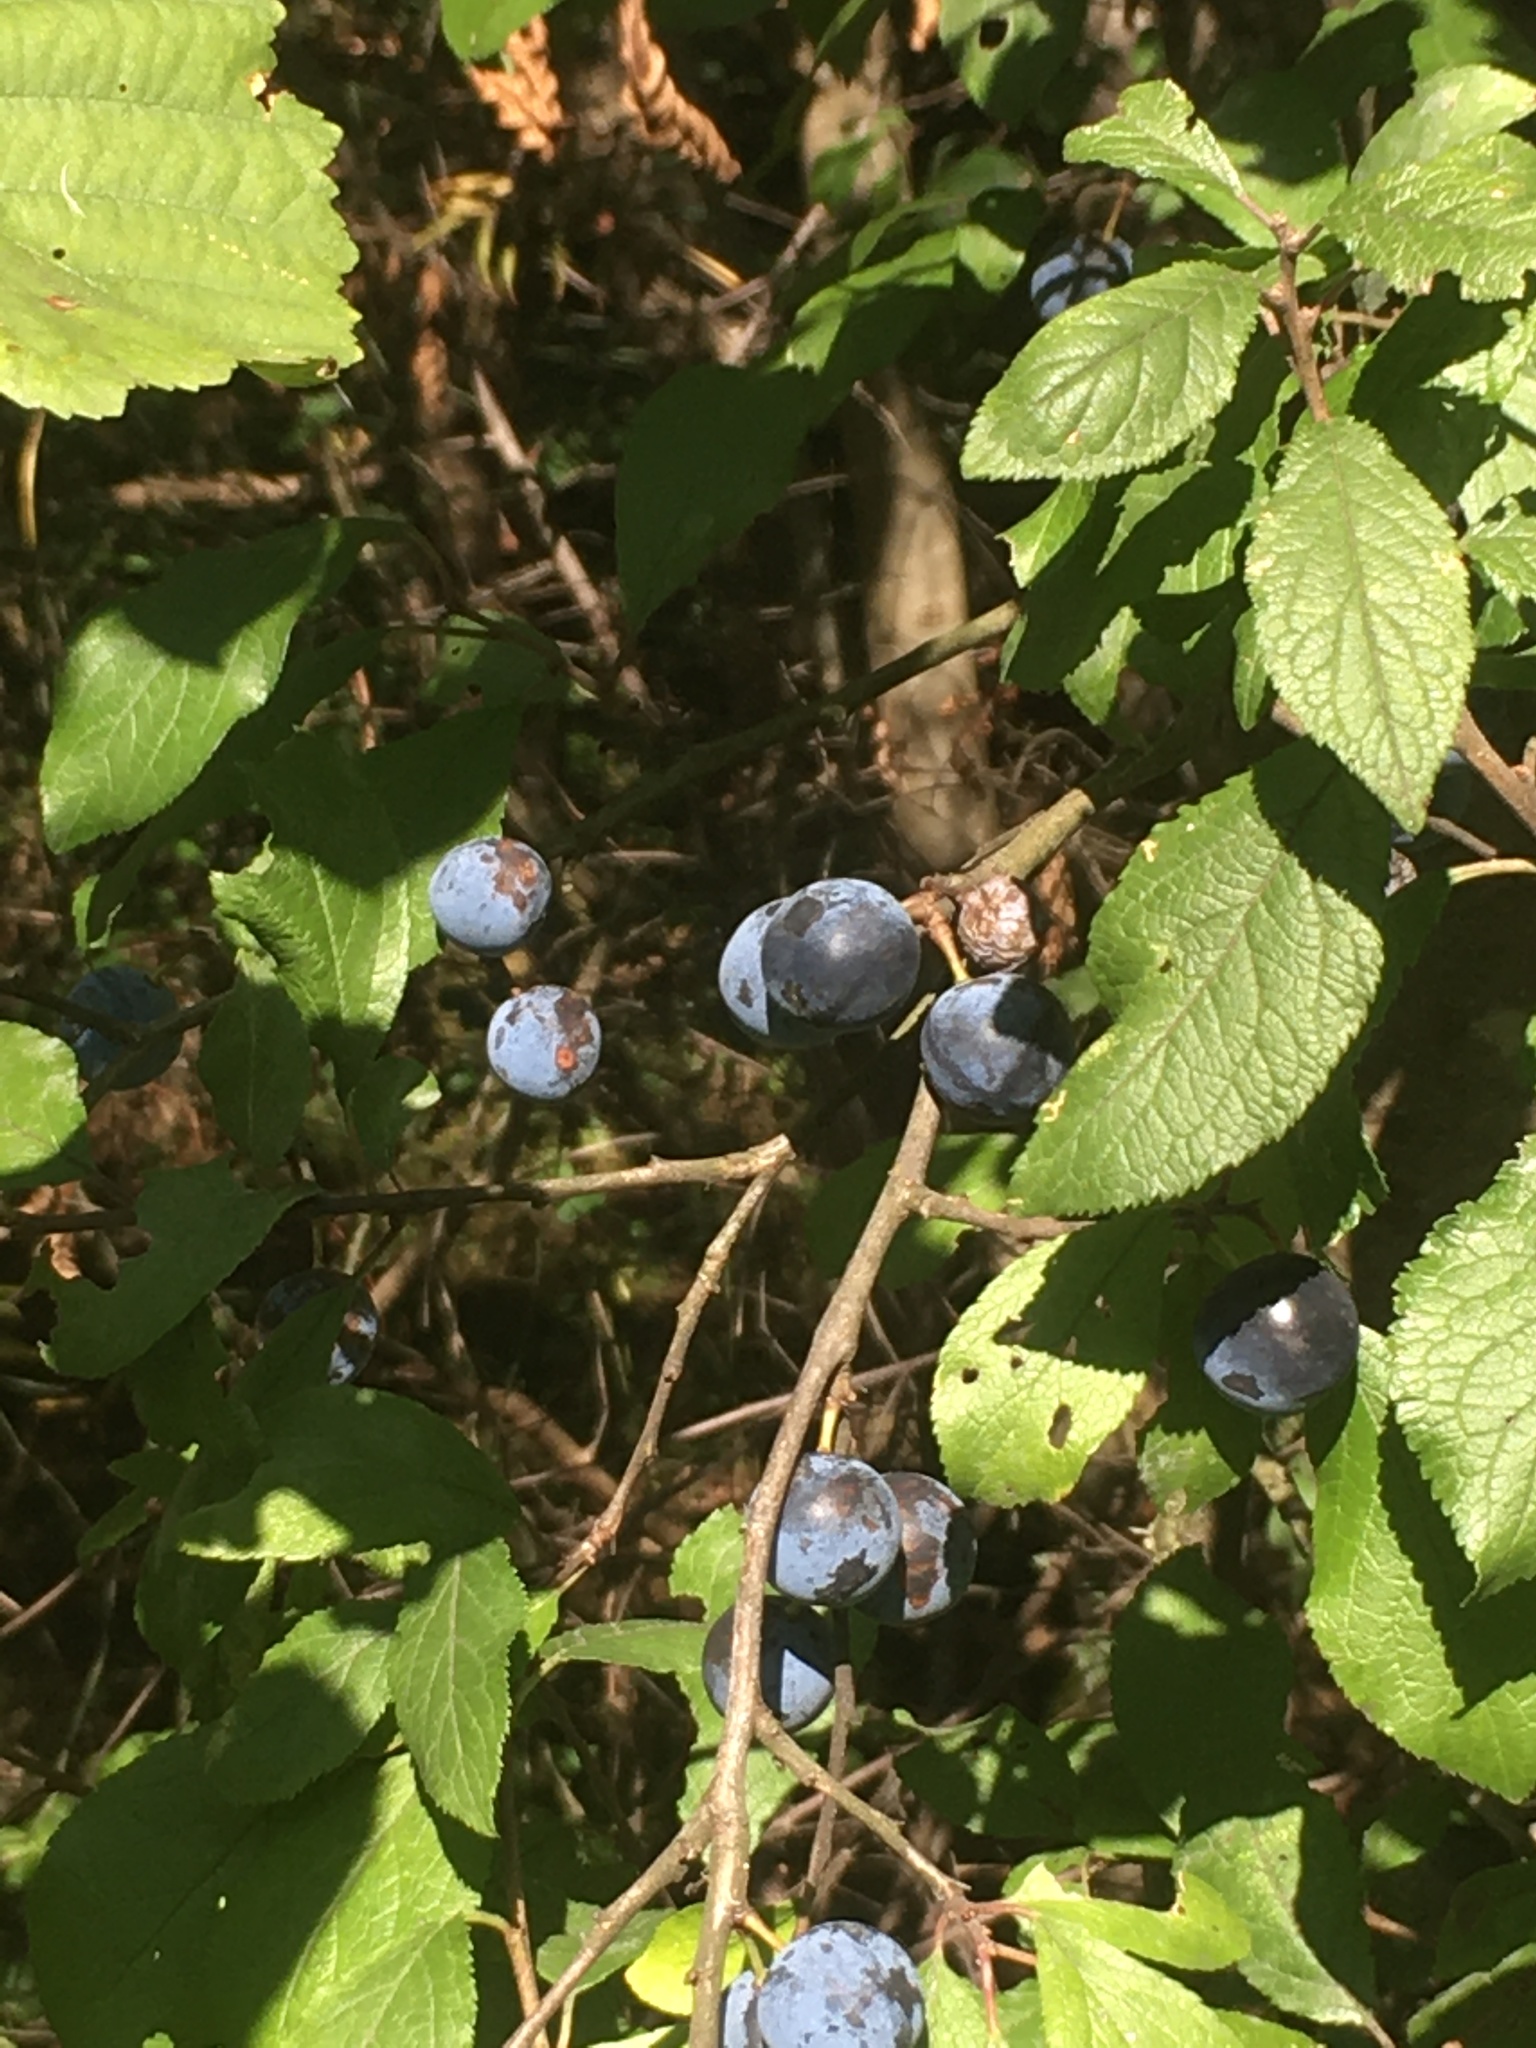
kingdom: Plantae
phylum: Tracheophyta
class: Magnoliopsida
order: Rosales
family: Rosaceae
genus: Prunus
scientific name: Prunus spinosa
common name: Blackthorn
